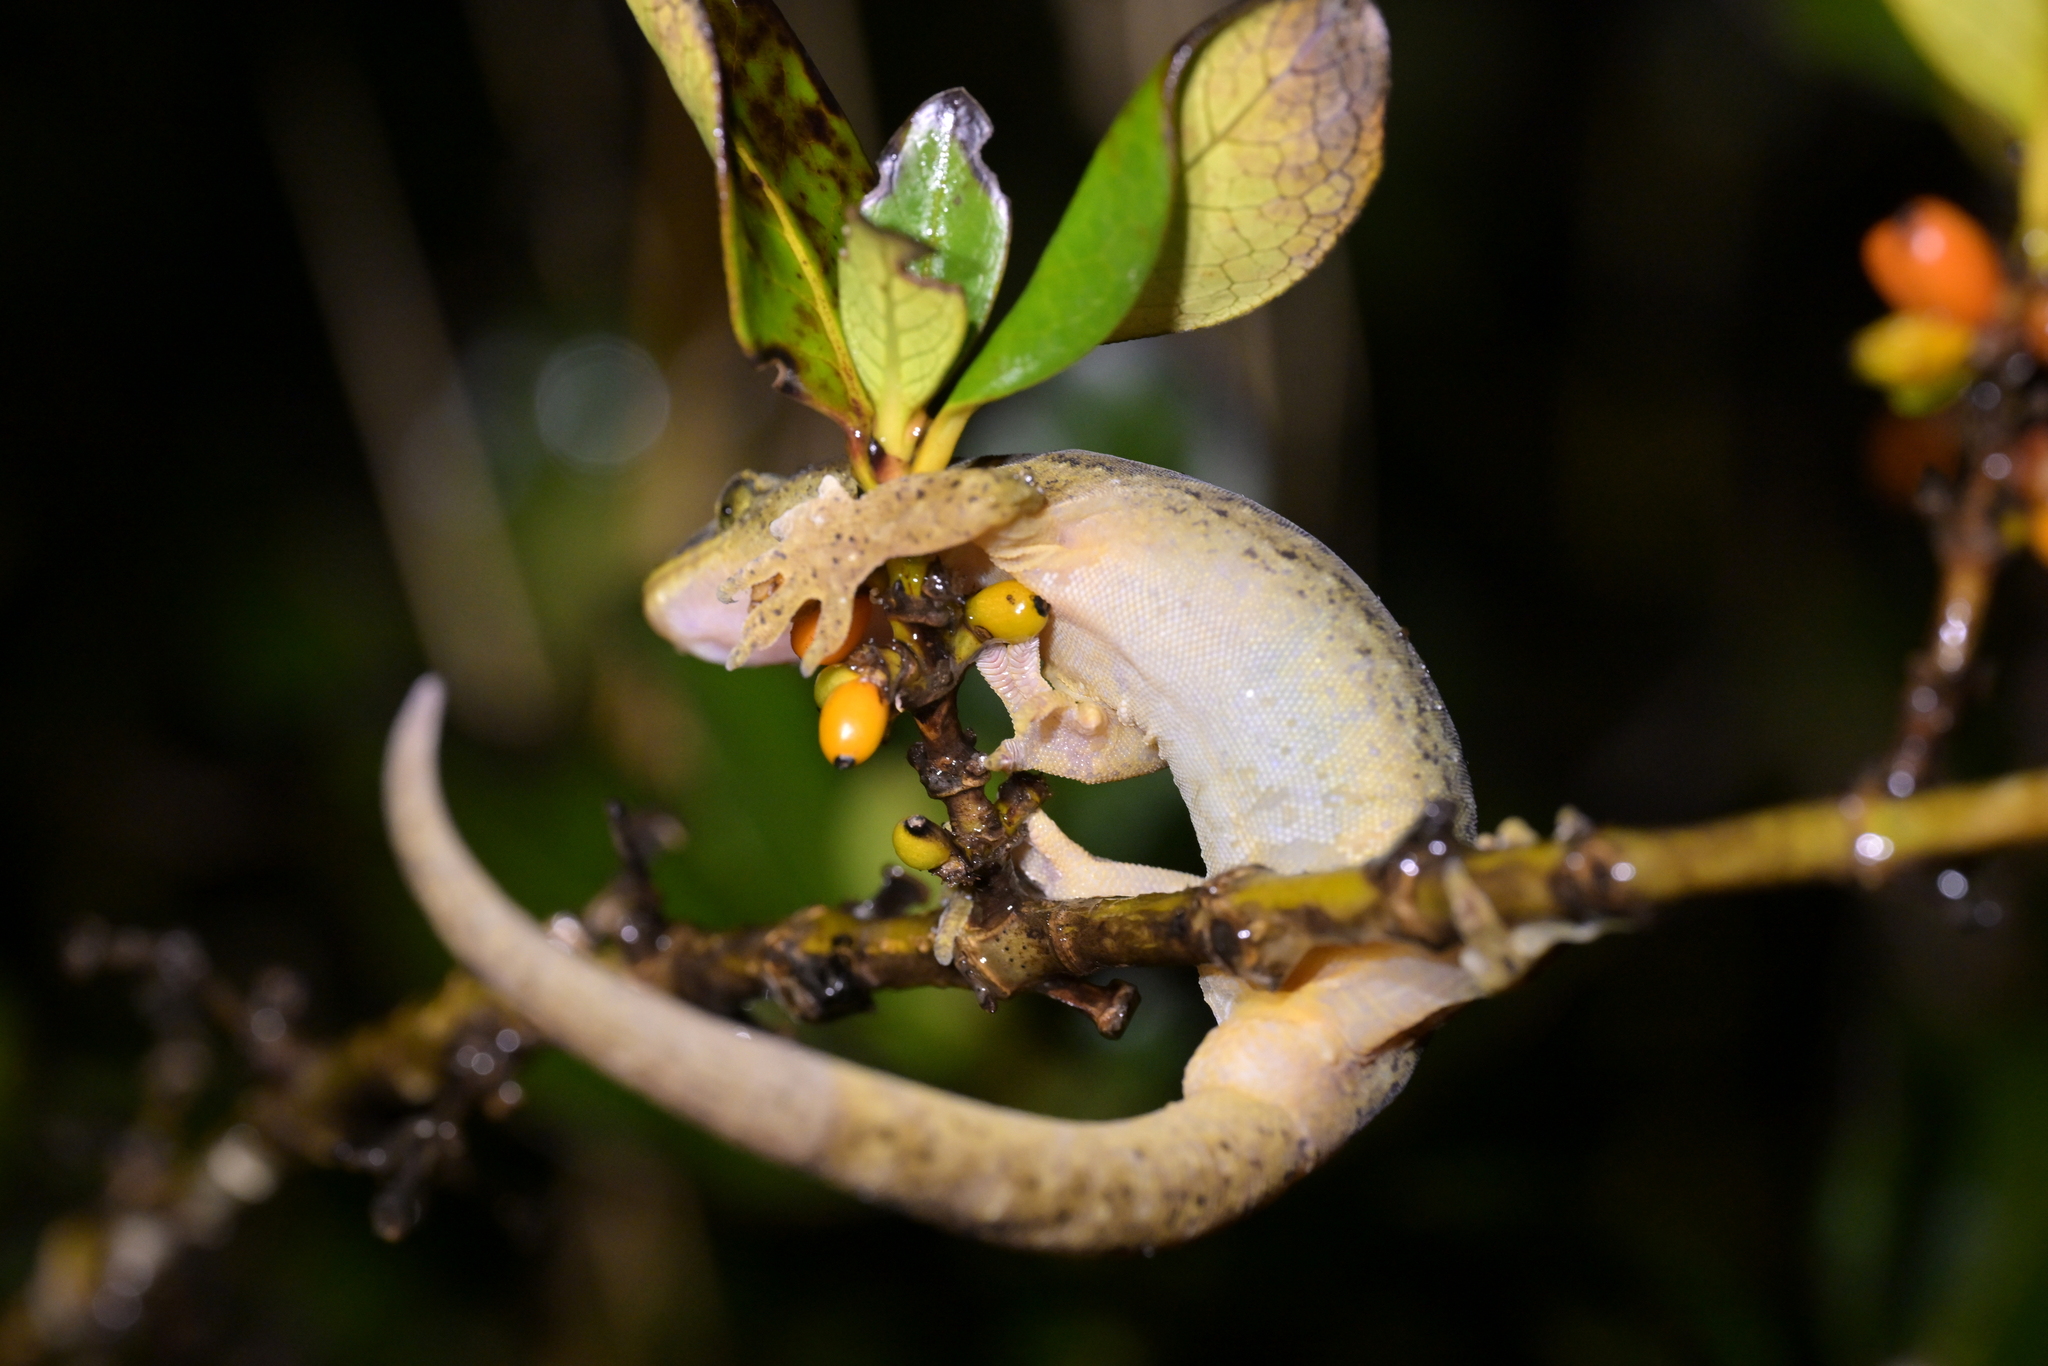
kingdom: Animalia
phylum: Chordata
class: Squamata
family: Diplodactylidae
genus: Woodworthia
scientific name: Woodworthia maculata
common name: Raukawa gecko
